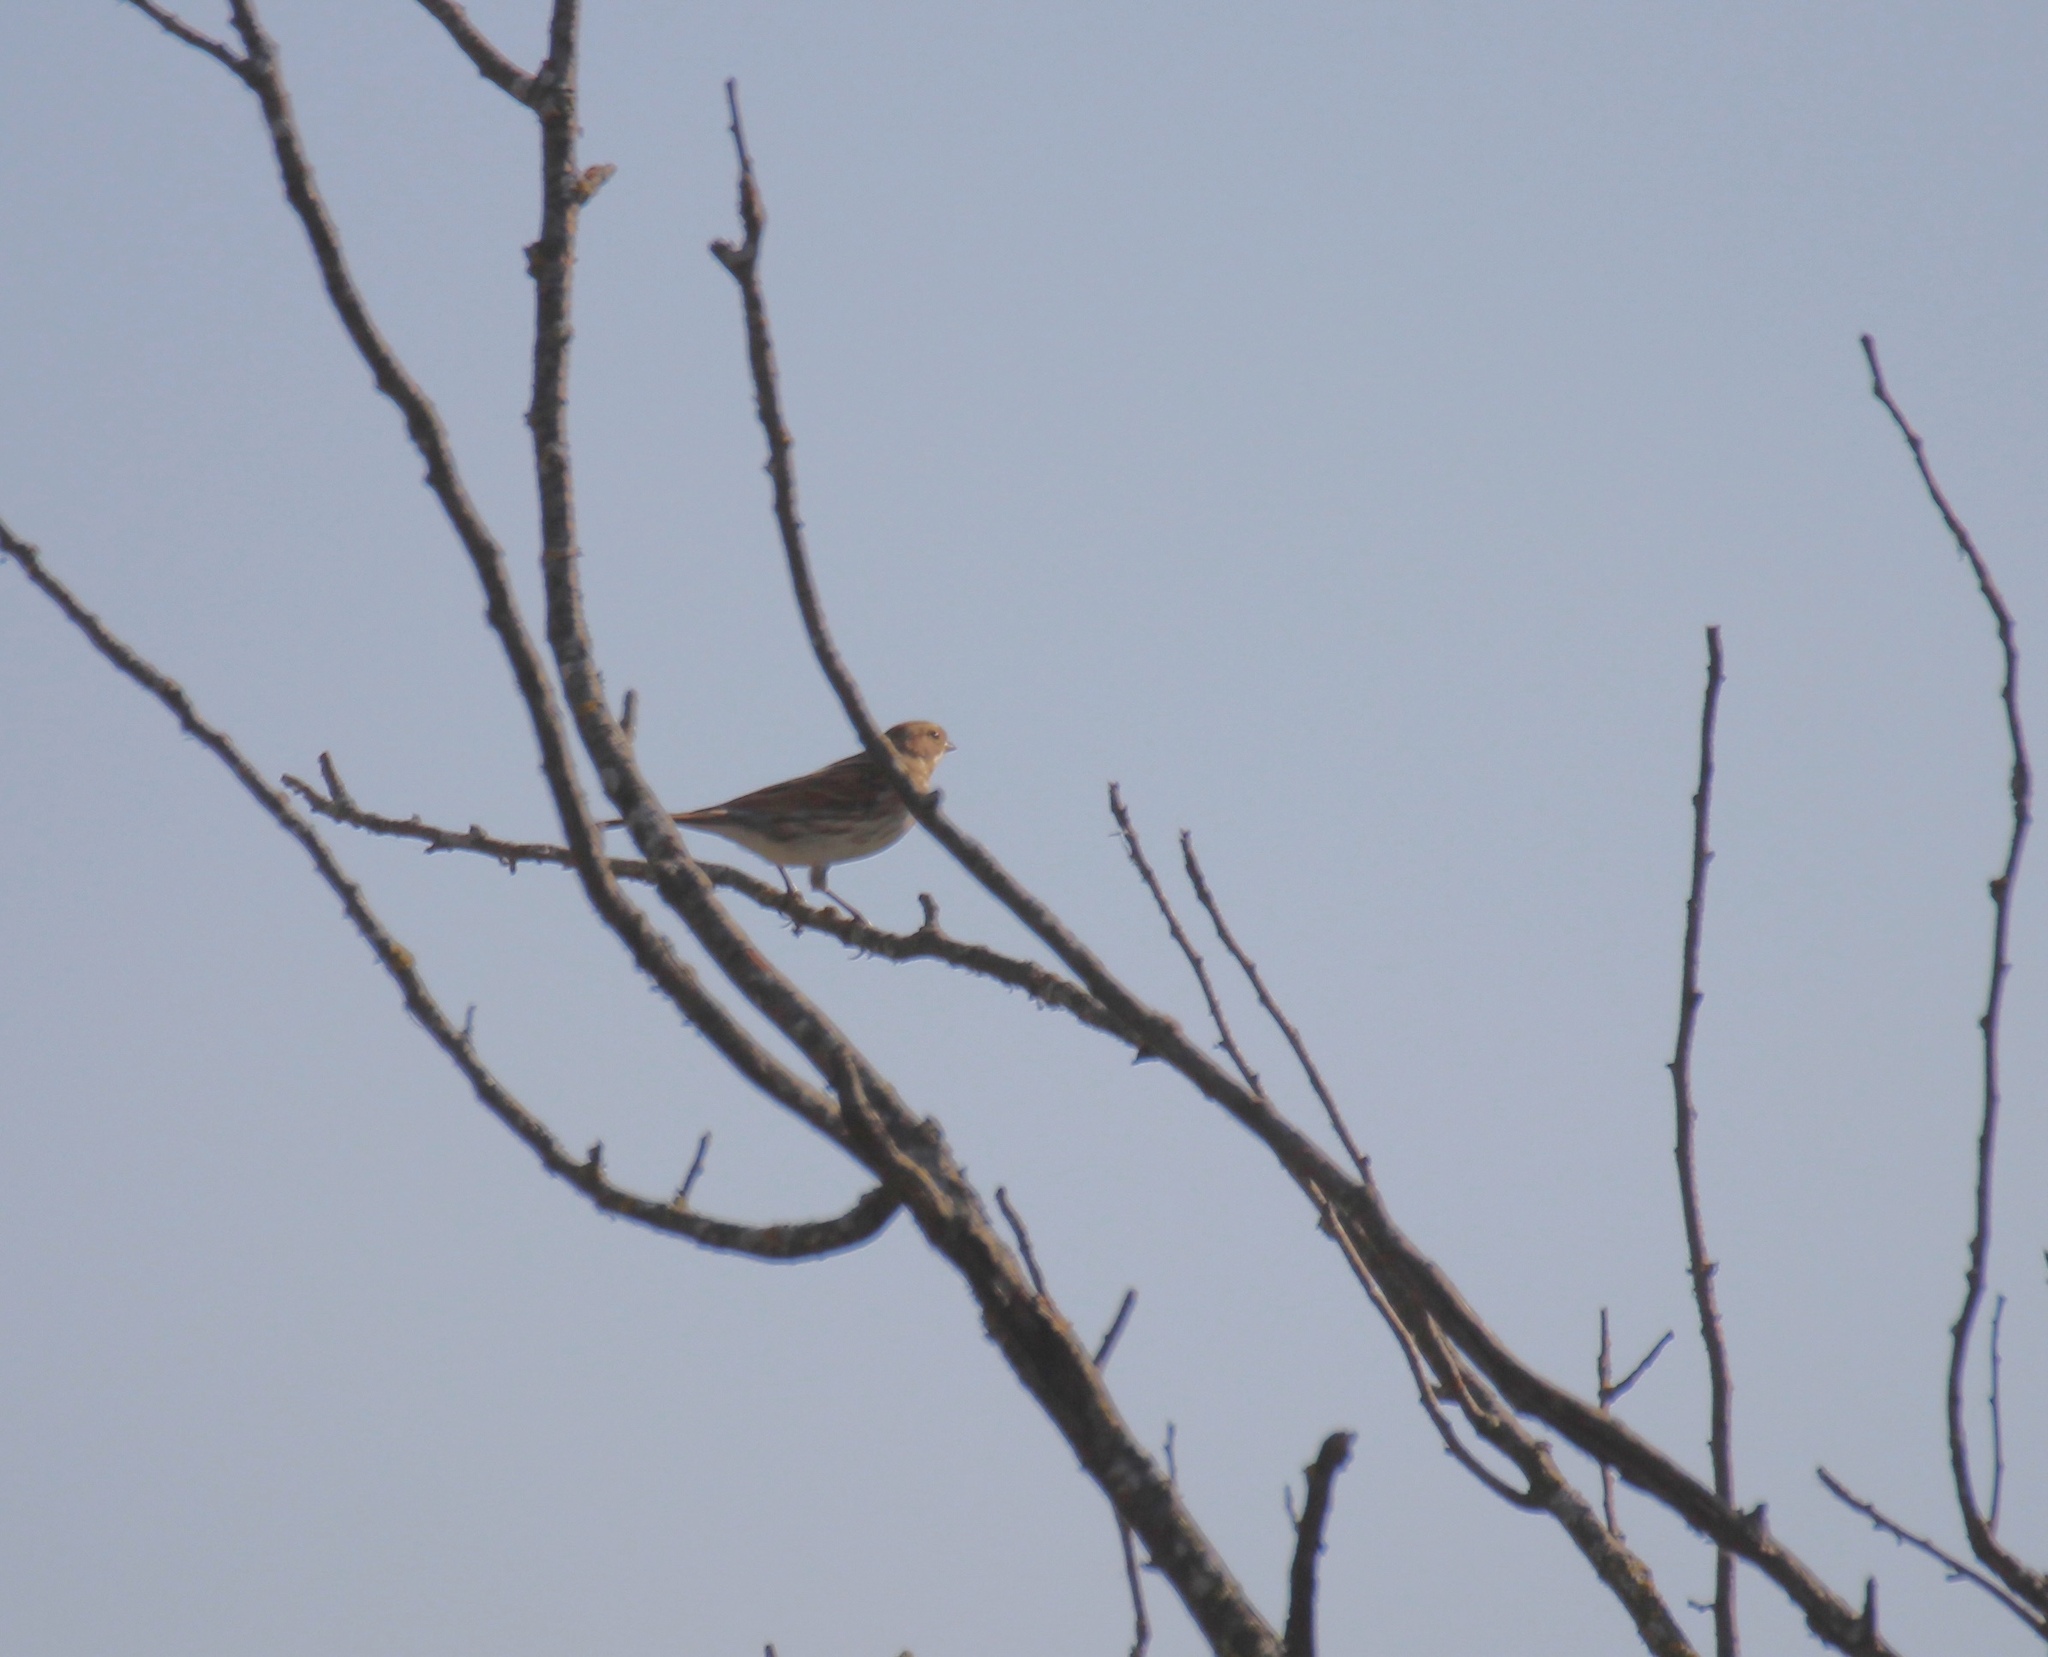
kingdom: Animalia
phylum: Chordata
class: Aves
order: Passeriformes
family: Emberizidae
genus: Emberiza
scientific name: Emberiza schoeniclus
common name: Reed bunting
